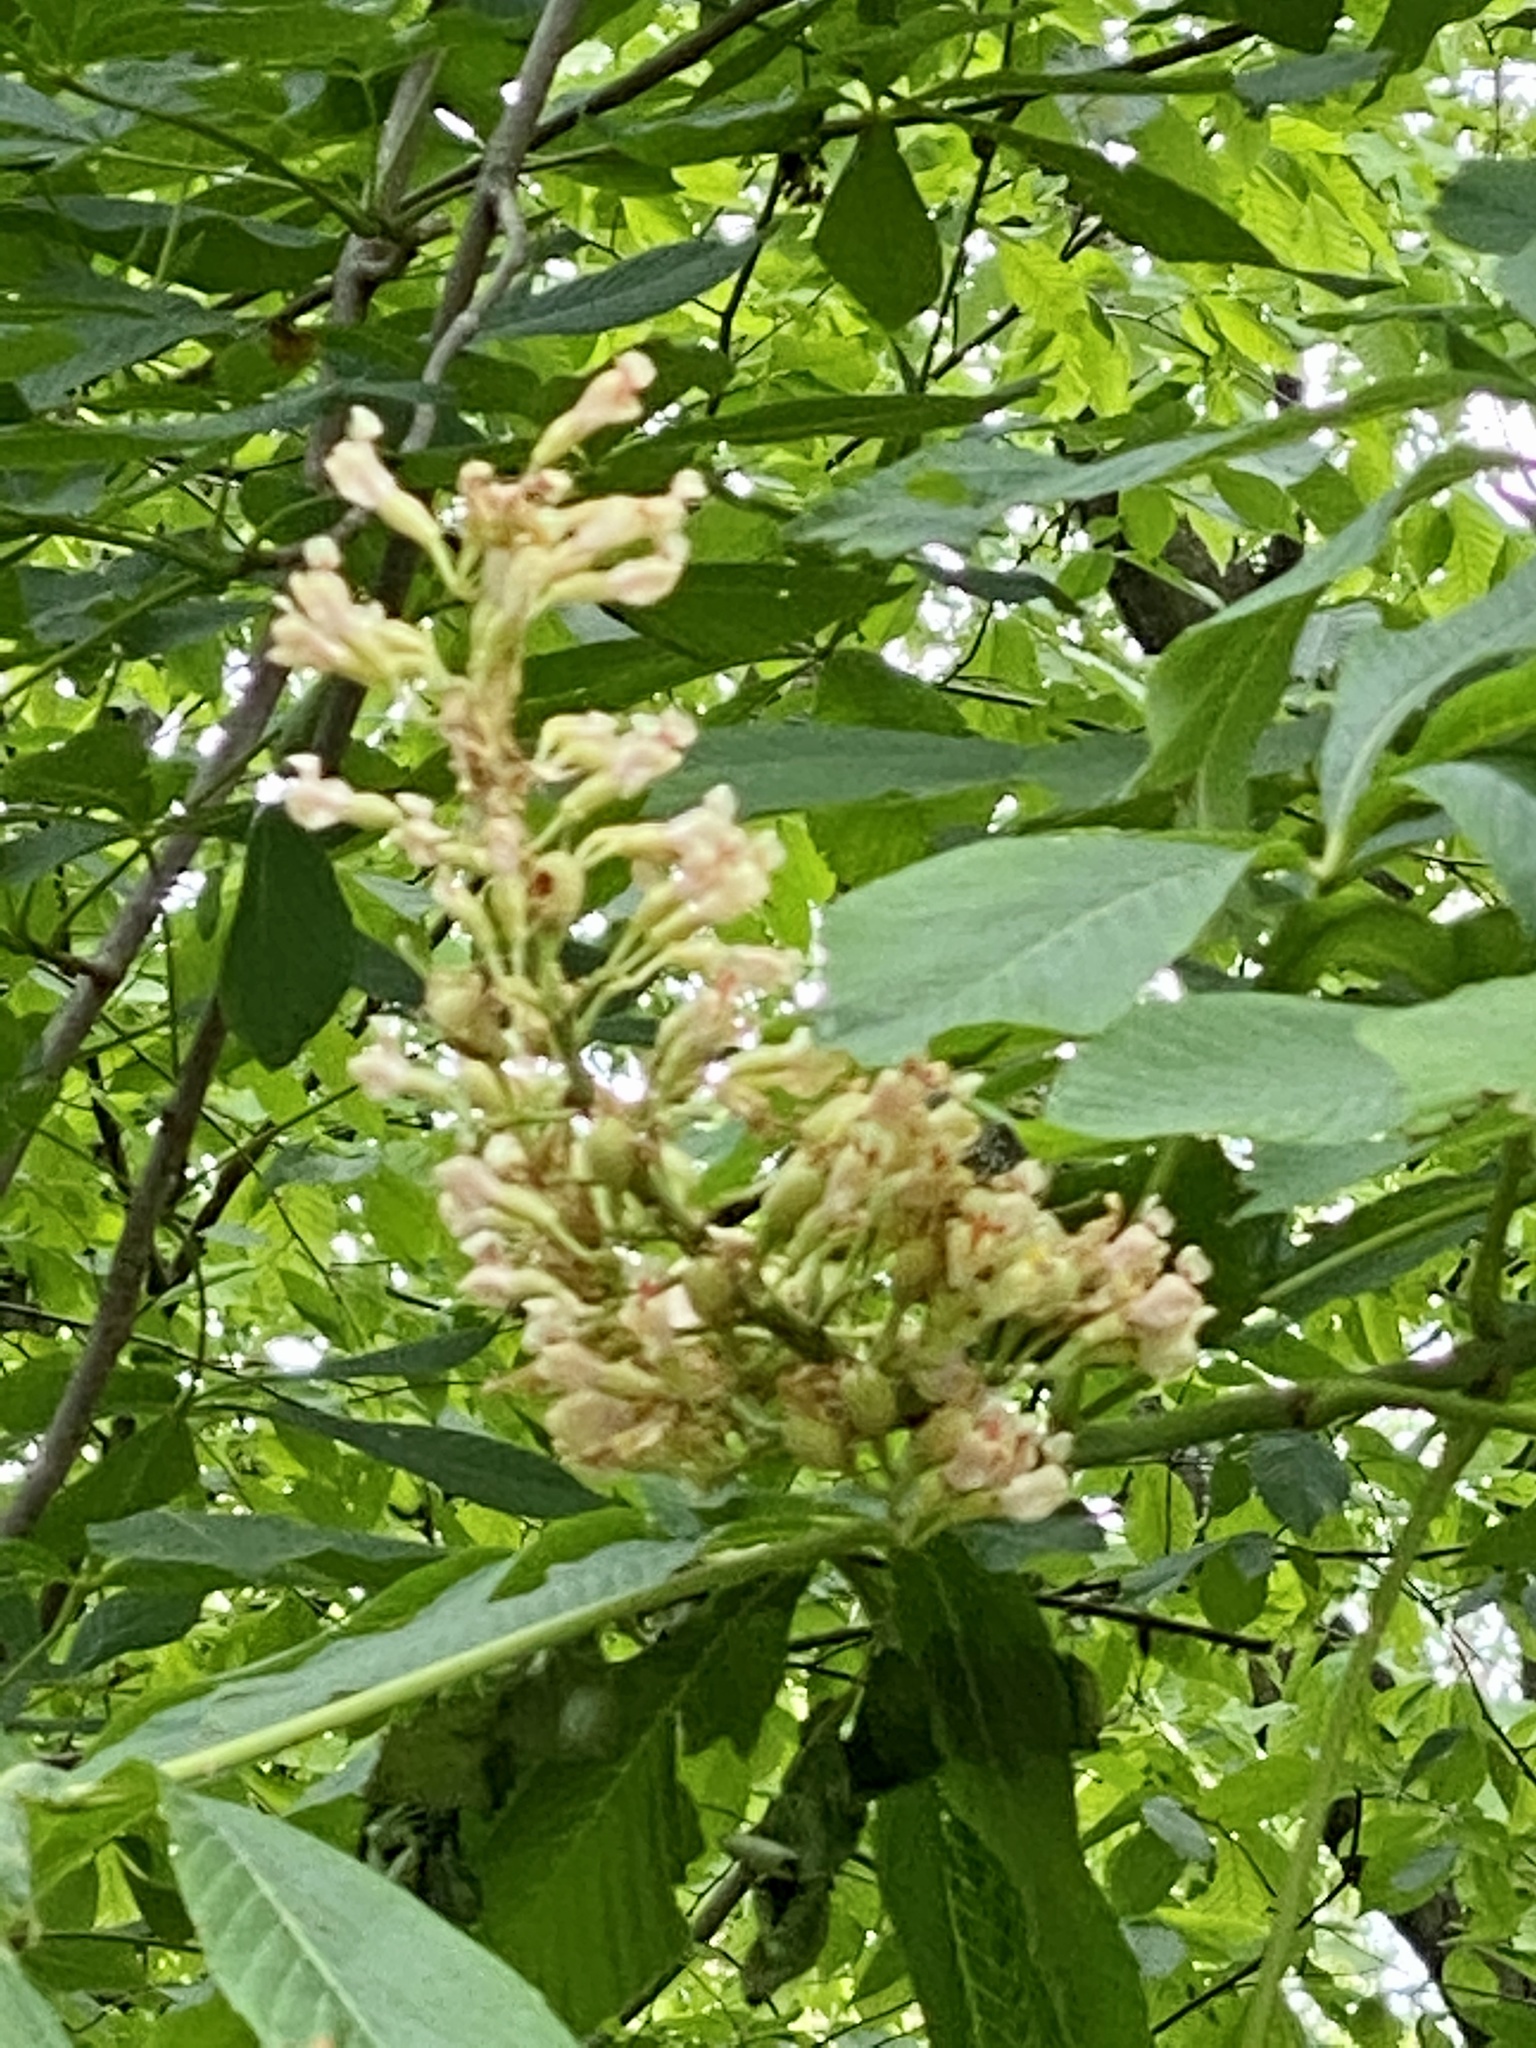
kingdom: Plantae
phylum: Tracheophyta
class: Magnoliopsida
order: Sapindales
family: Sapindaceae
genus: Aesculus
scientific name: Aesculus flava
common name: Yellow buckeye
